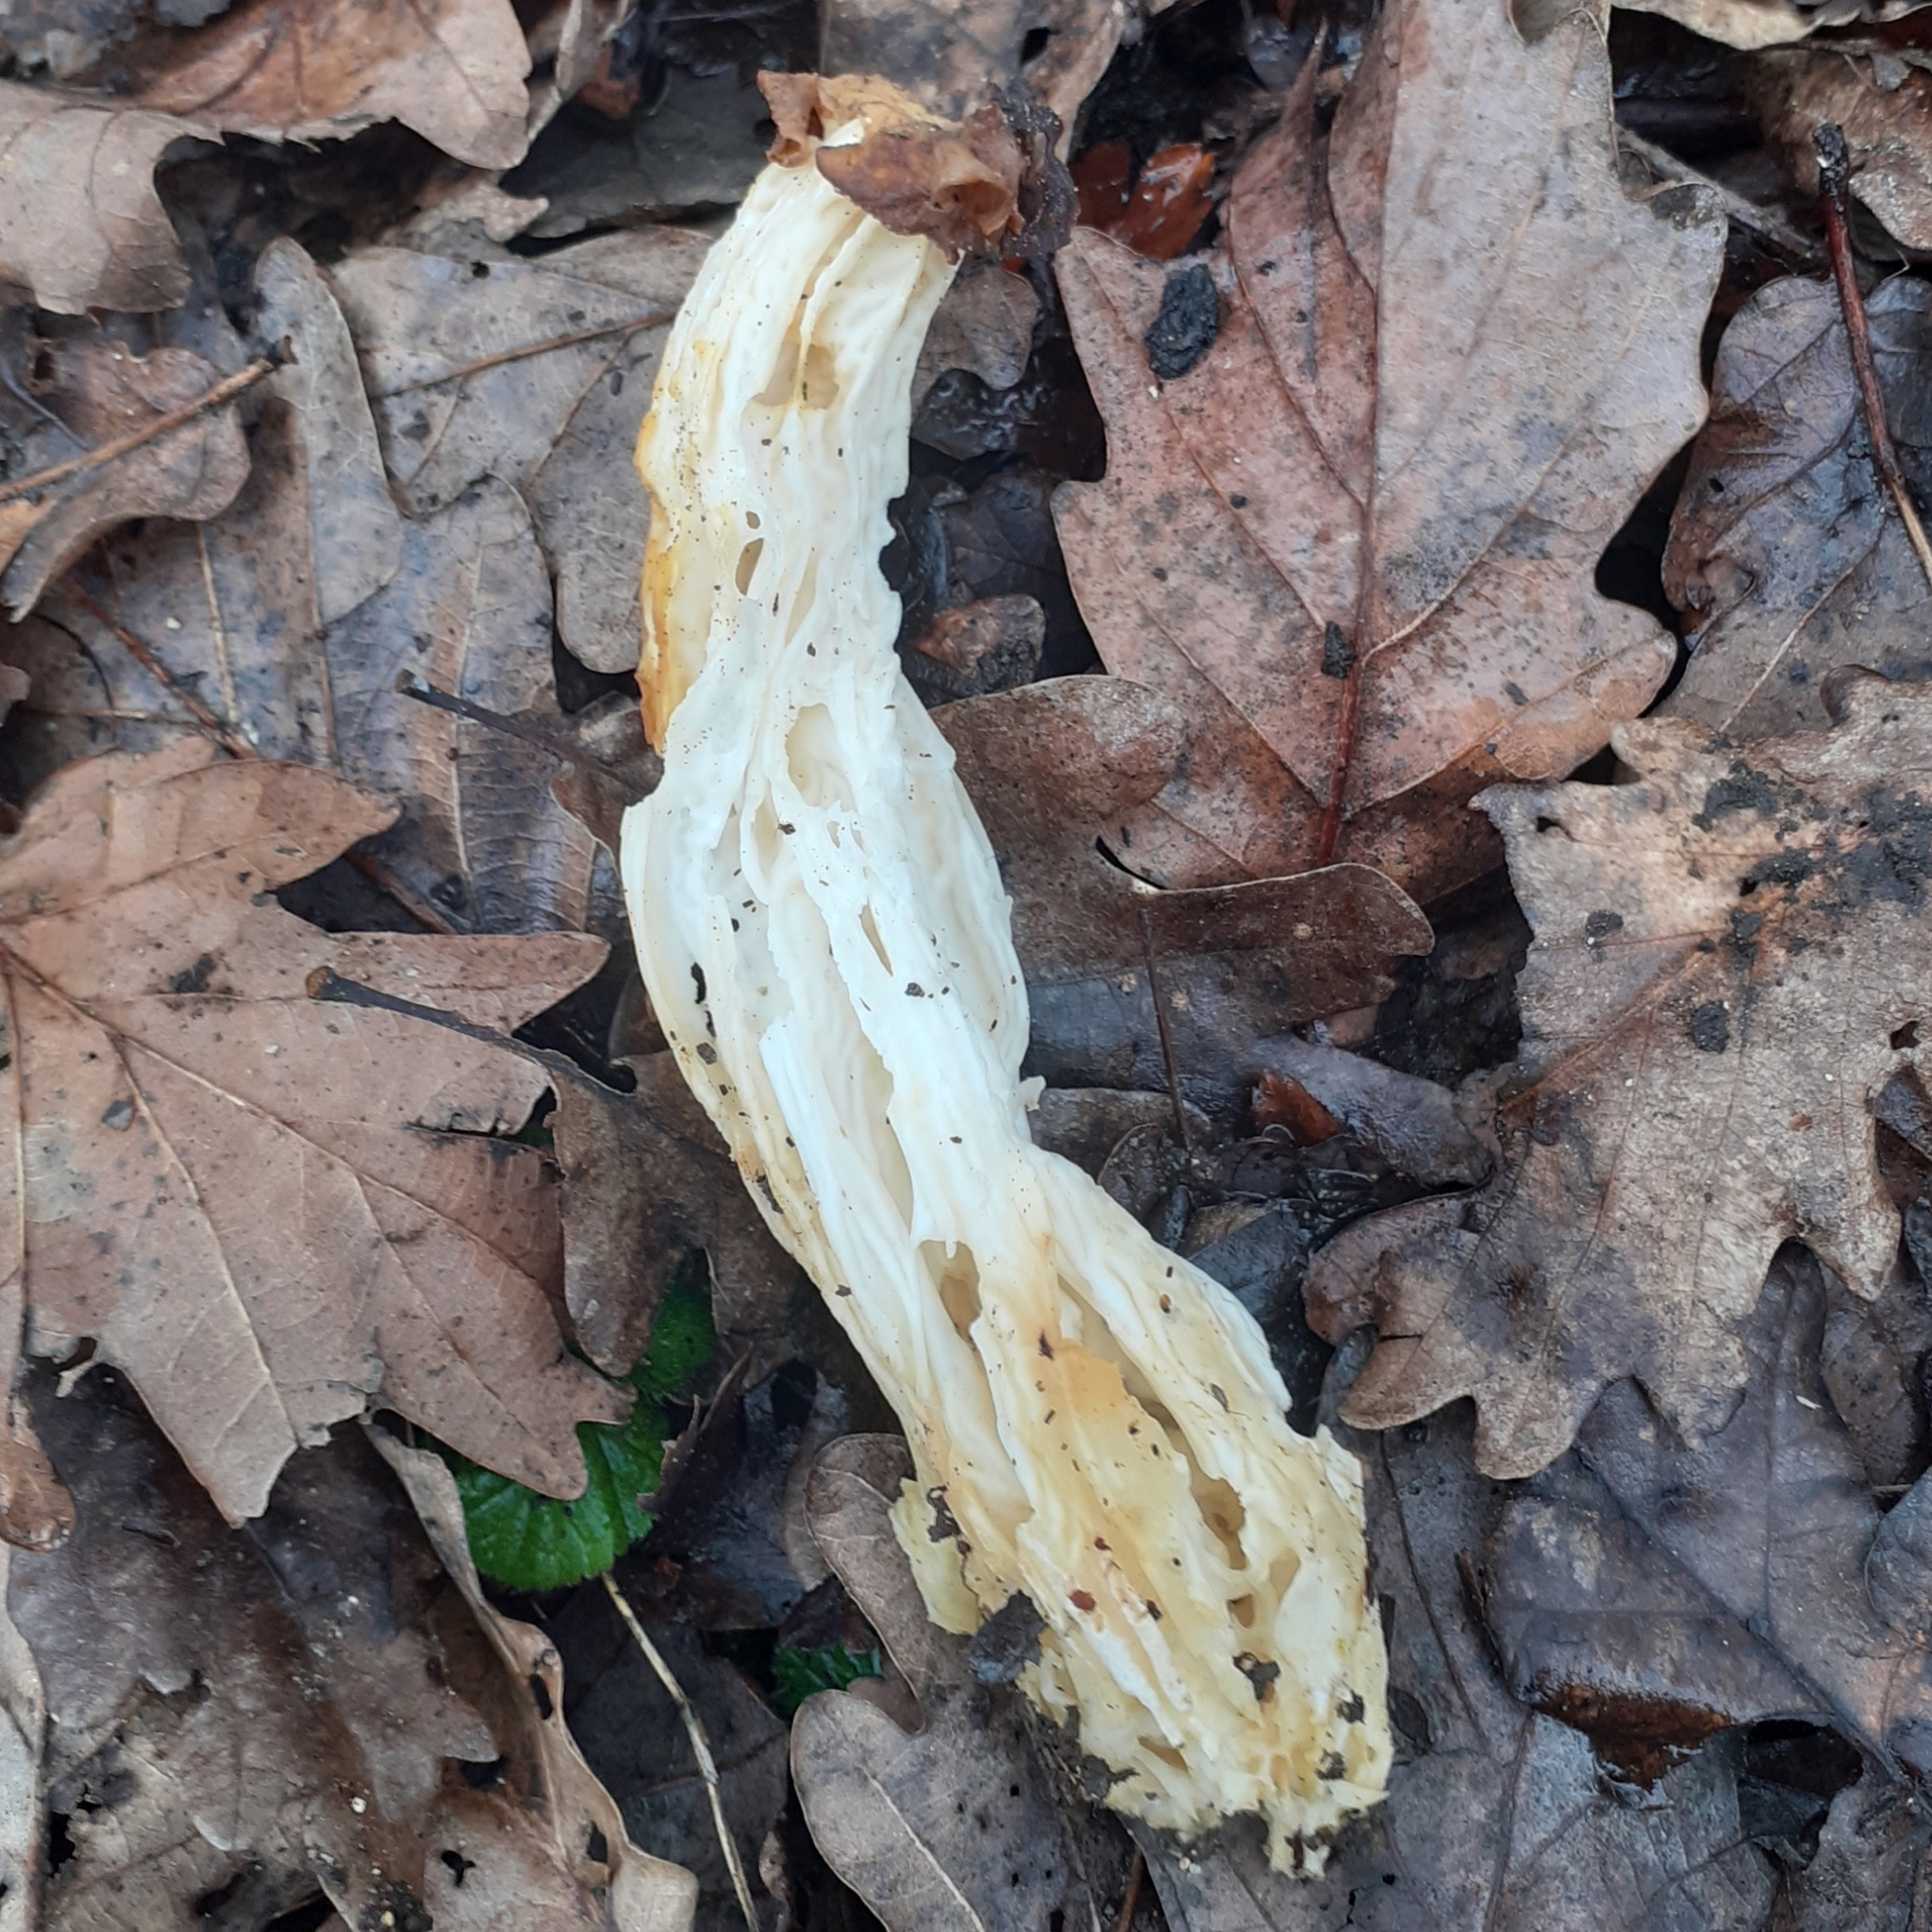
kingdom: Fungi
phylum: Ascomycota
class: Pezizomycetes
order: Pezizales
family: Helvellaceae
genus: Helvella
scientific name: Helvella crispa
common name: White saddle
